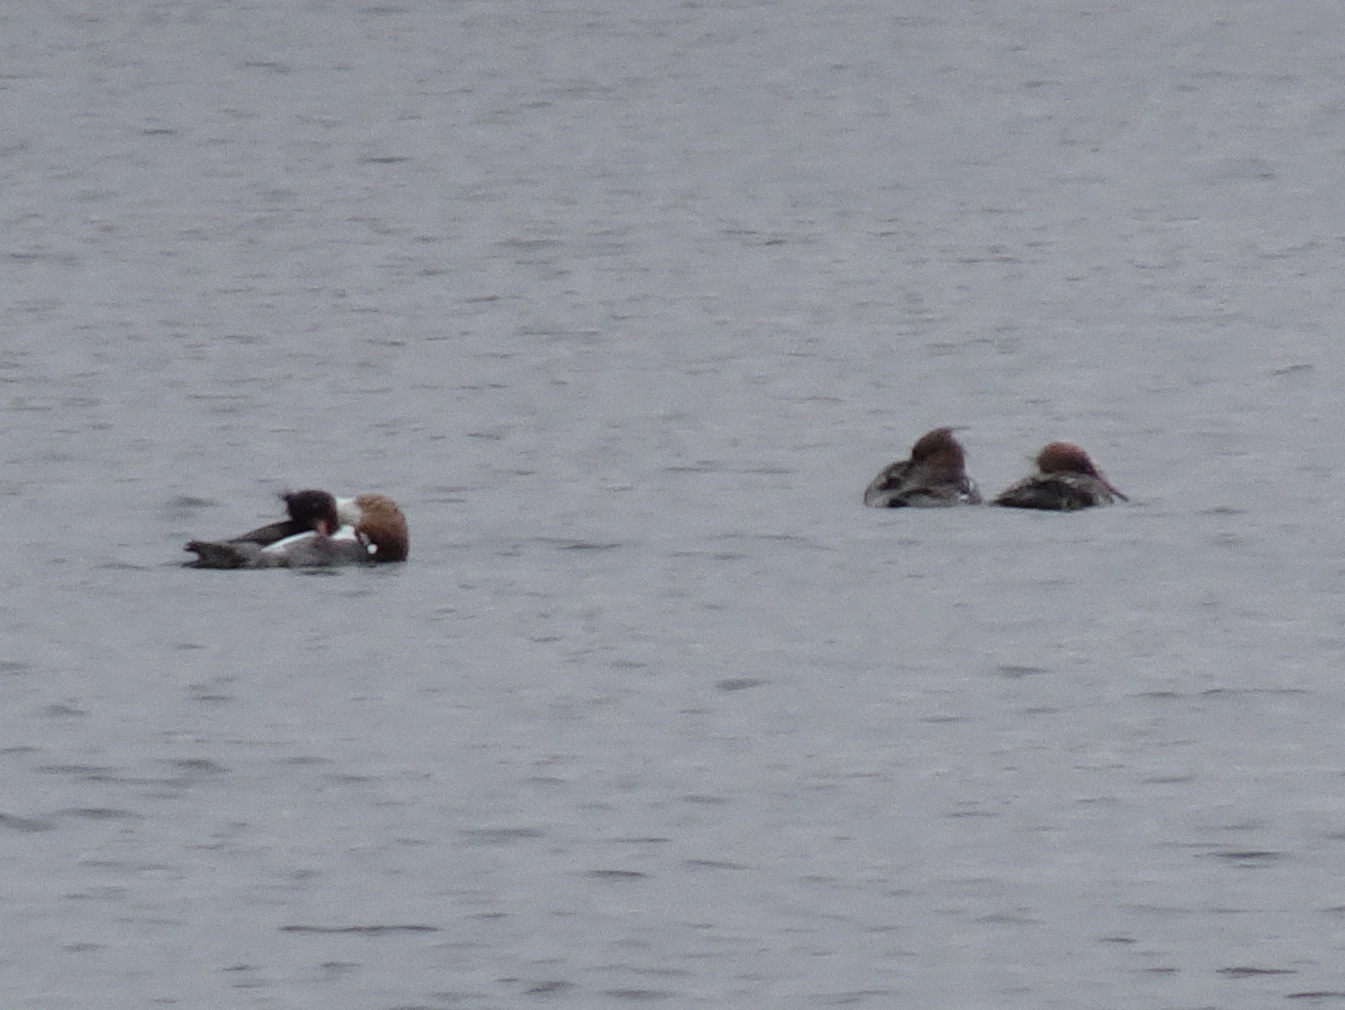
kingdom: Animalia
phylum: Chordata
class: Aves
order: Anseriformes
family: Anatidae
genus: Mergus
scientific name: Mergus serrator
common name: Red-breasted merganser
